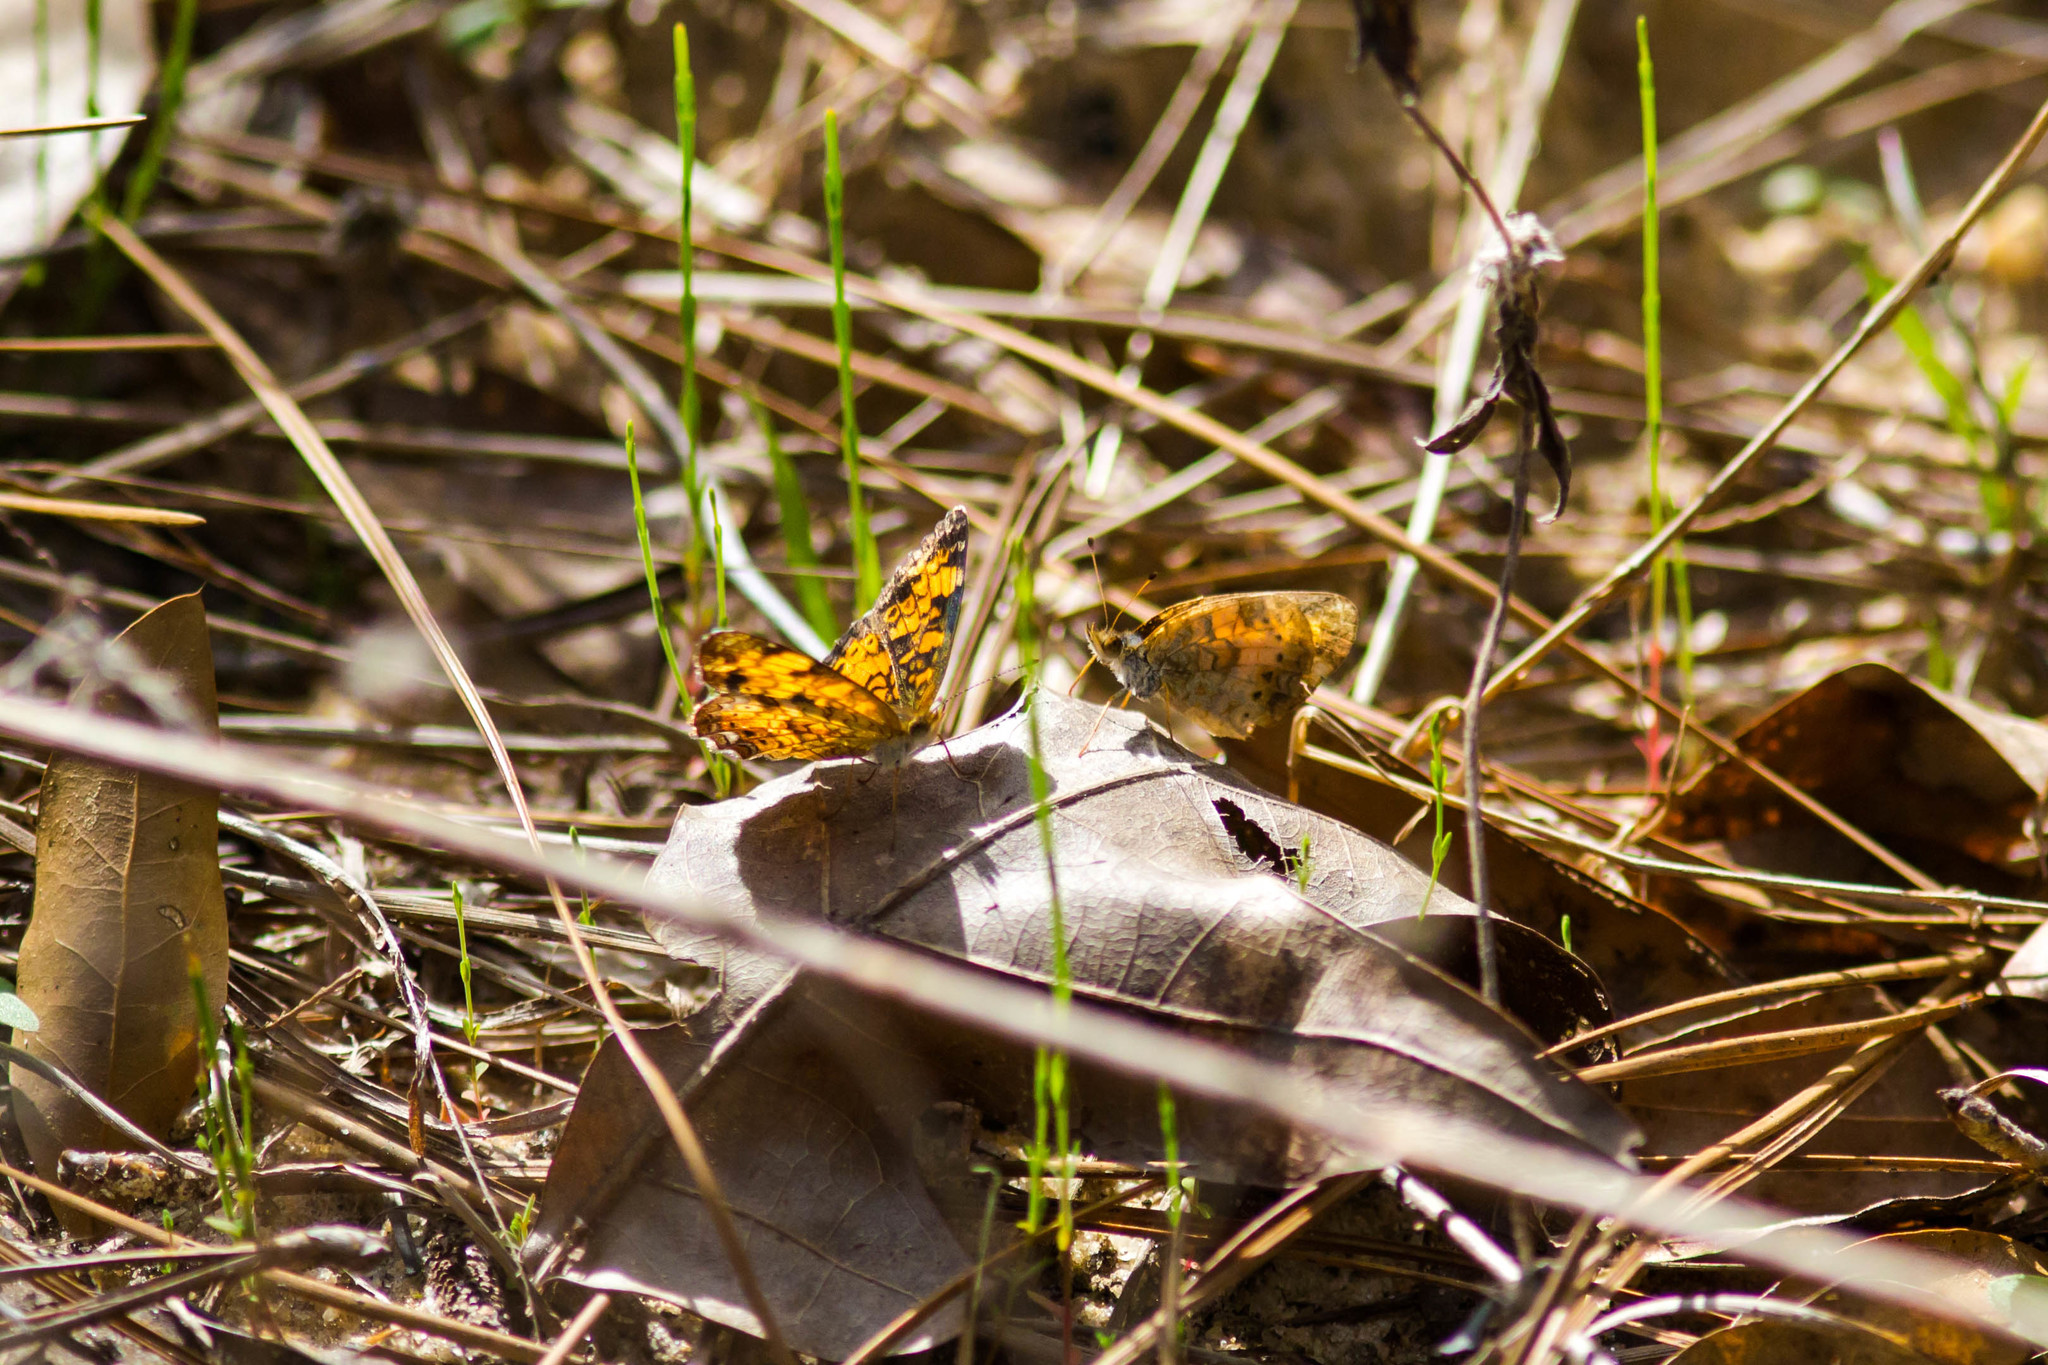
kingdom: Animalia
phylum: Arthropoda
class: Insecta
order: Lepidoptera
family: Nymphalidae
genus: Phyciodes
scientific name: Phyciodes tharos
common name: Pearl crescent
